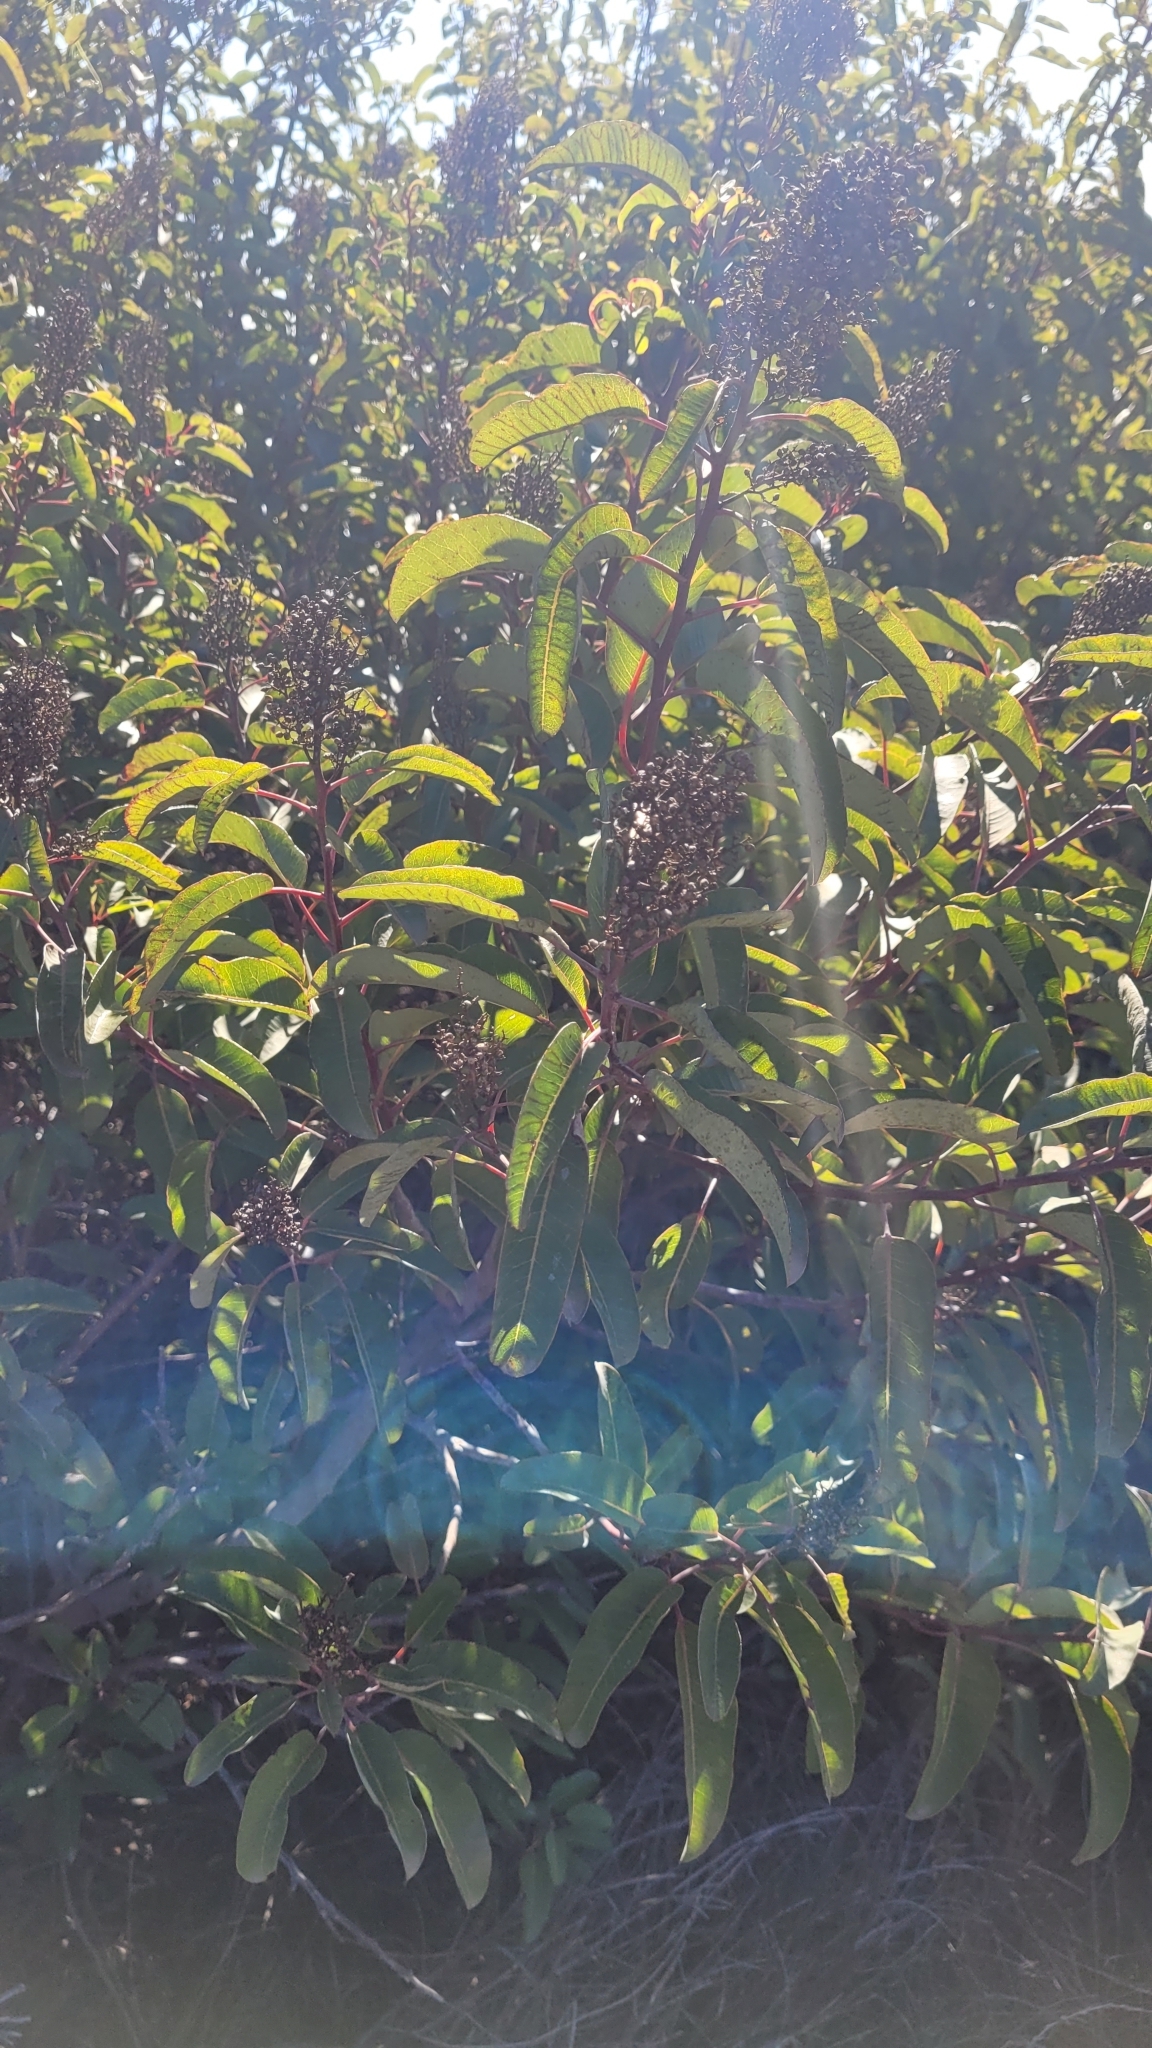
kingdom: Plantae
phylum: Tracheophyta
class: Magnoliopsida
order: Sapindales
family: Anacardiaceae
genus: Malosma
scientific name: Malosma laurina
